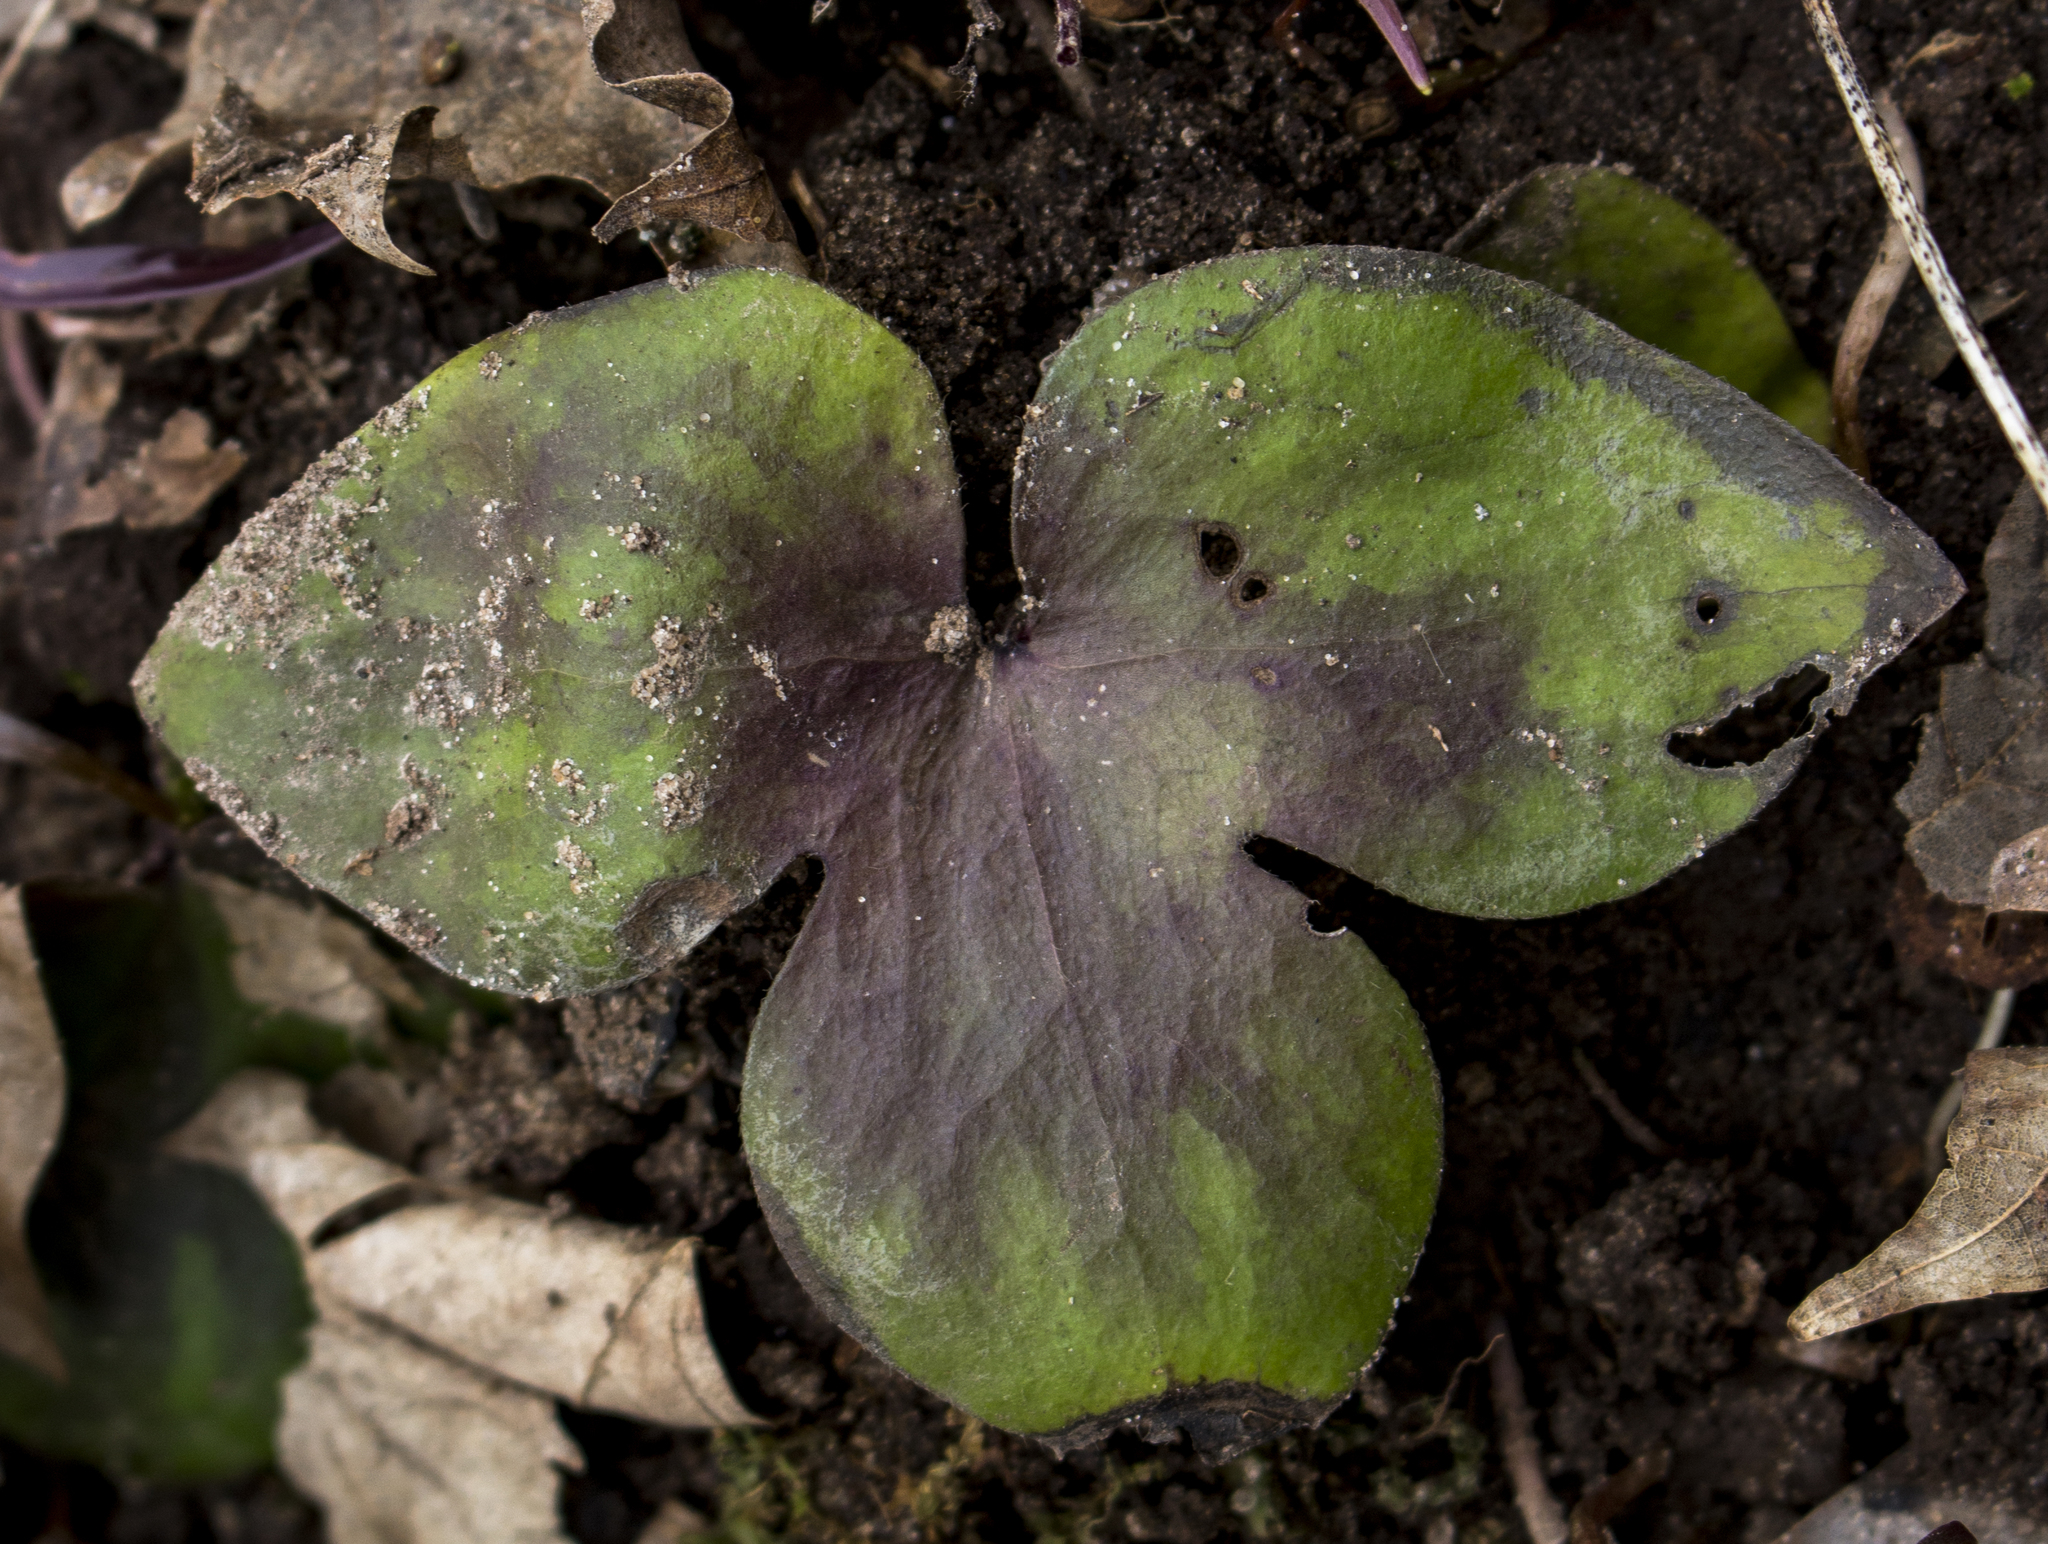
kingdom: Plantae
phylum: Tracheophyta
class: Magnoliopsida
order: Ranunculales
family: Ranunculaceae
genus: Hepatica
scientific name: Hepatica acutiloba
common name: Sharp-lobed hepatica
